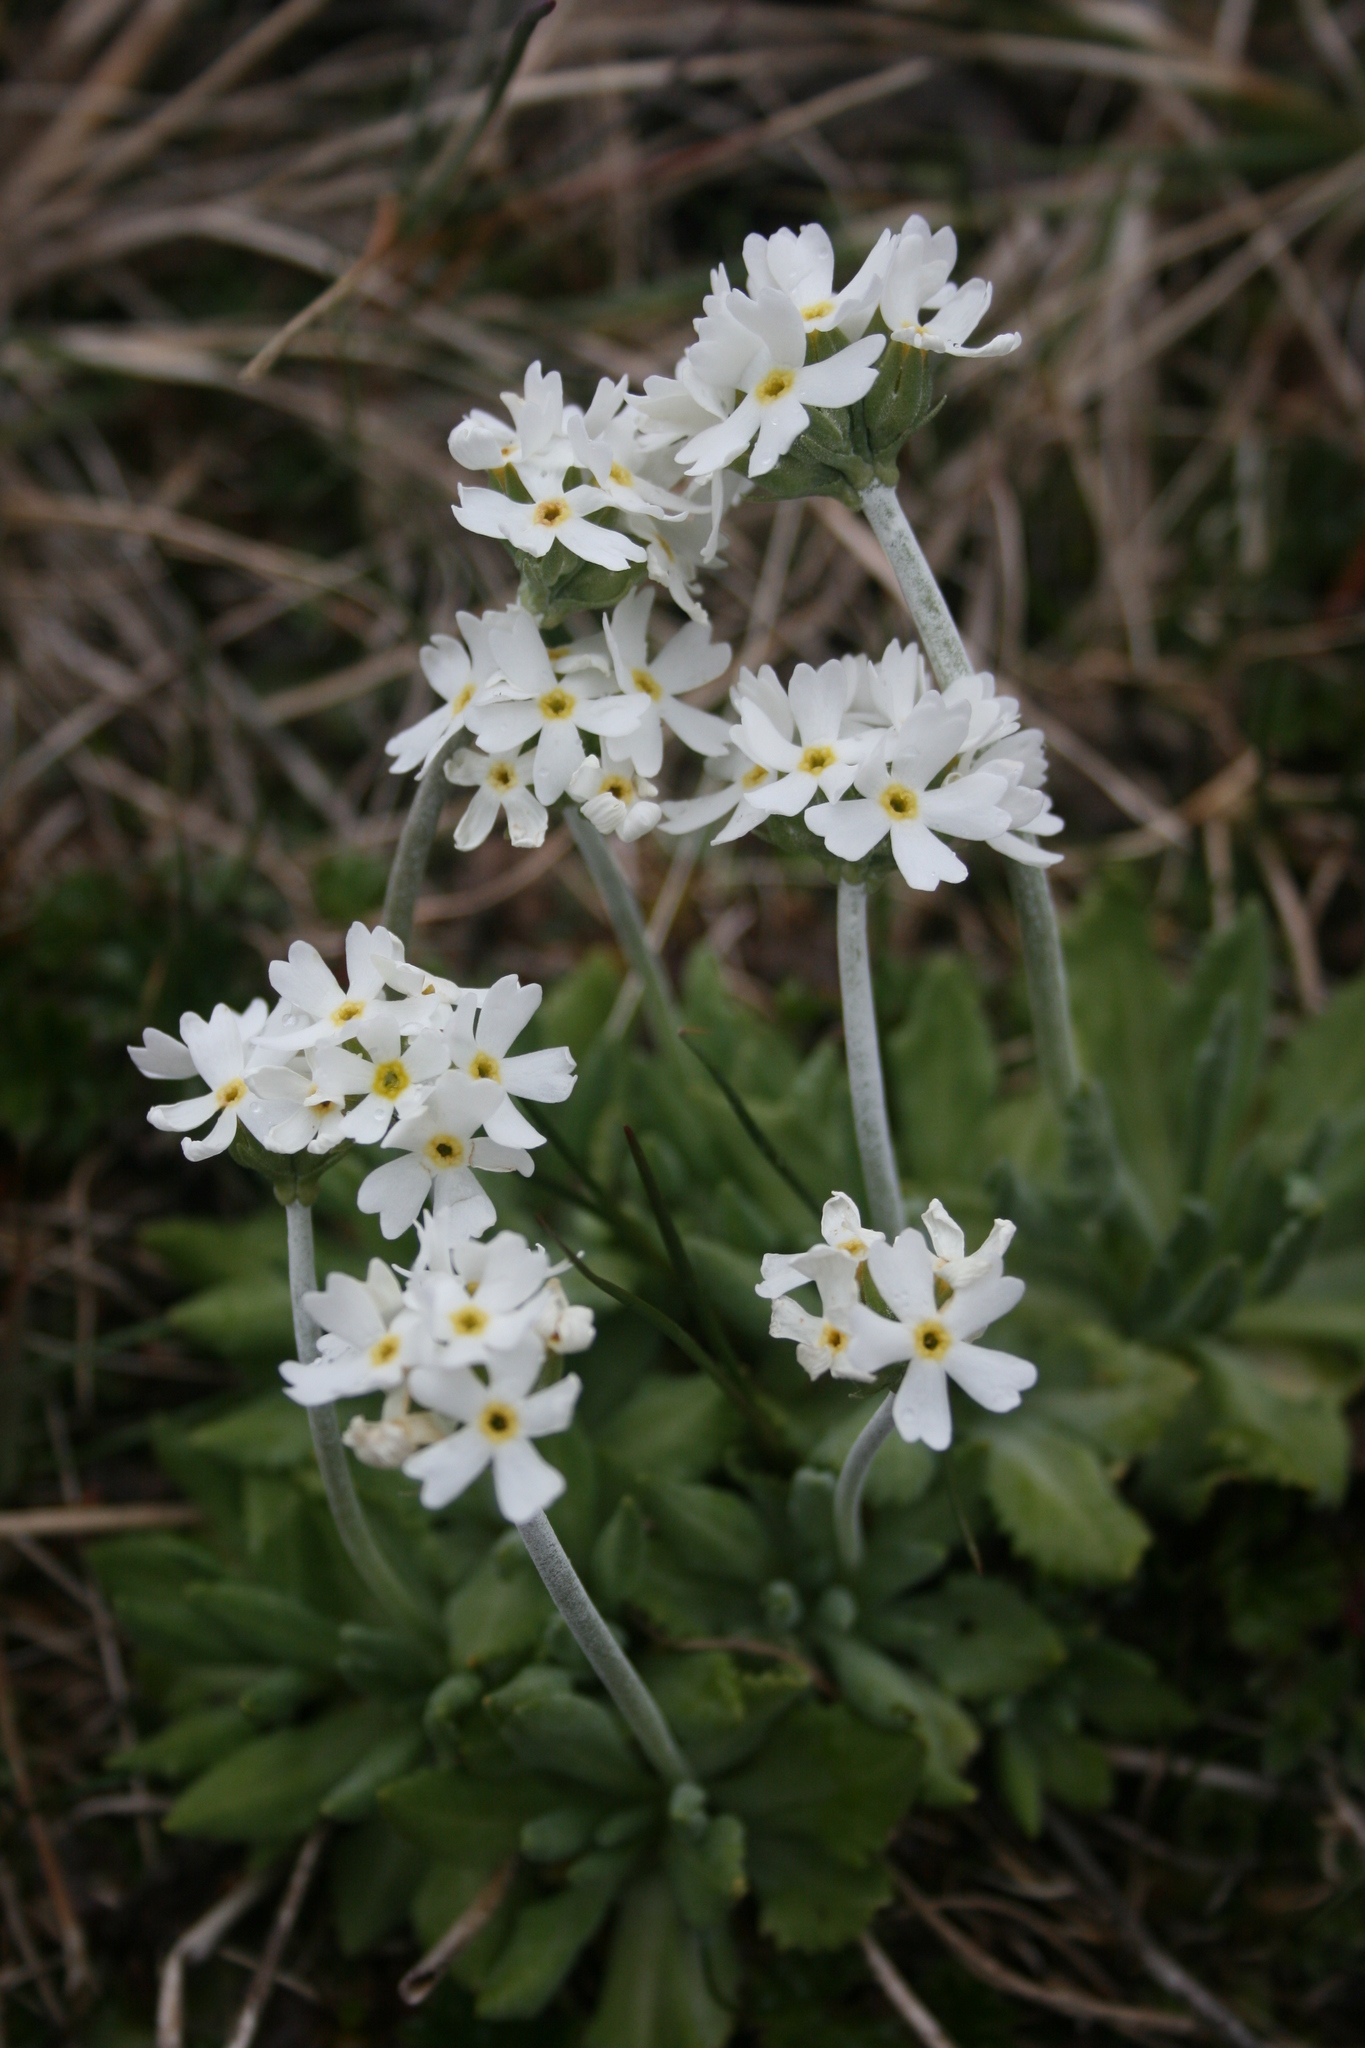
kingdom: Plantae
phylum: Tracheophyta
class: Magnoliopsida
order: Ericales
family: Primulaceae
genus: Primula
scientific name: Primula magellanica
